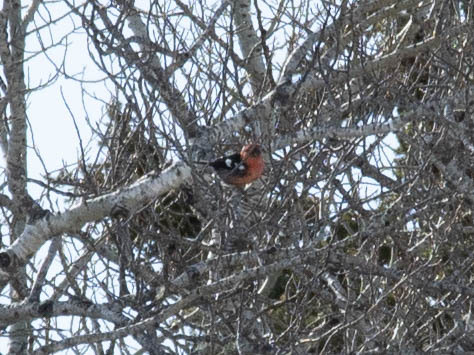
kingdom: Animalia
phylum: Chordata
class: Aves
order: Passeriformes
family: Fringillidae
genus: Loxia
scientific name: Loxia leucoptera
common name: Two-barred crossbill
